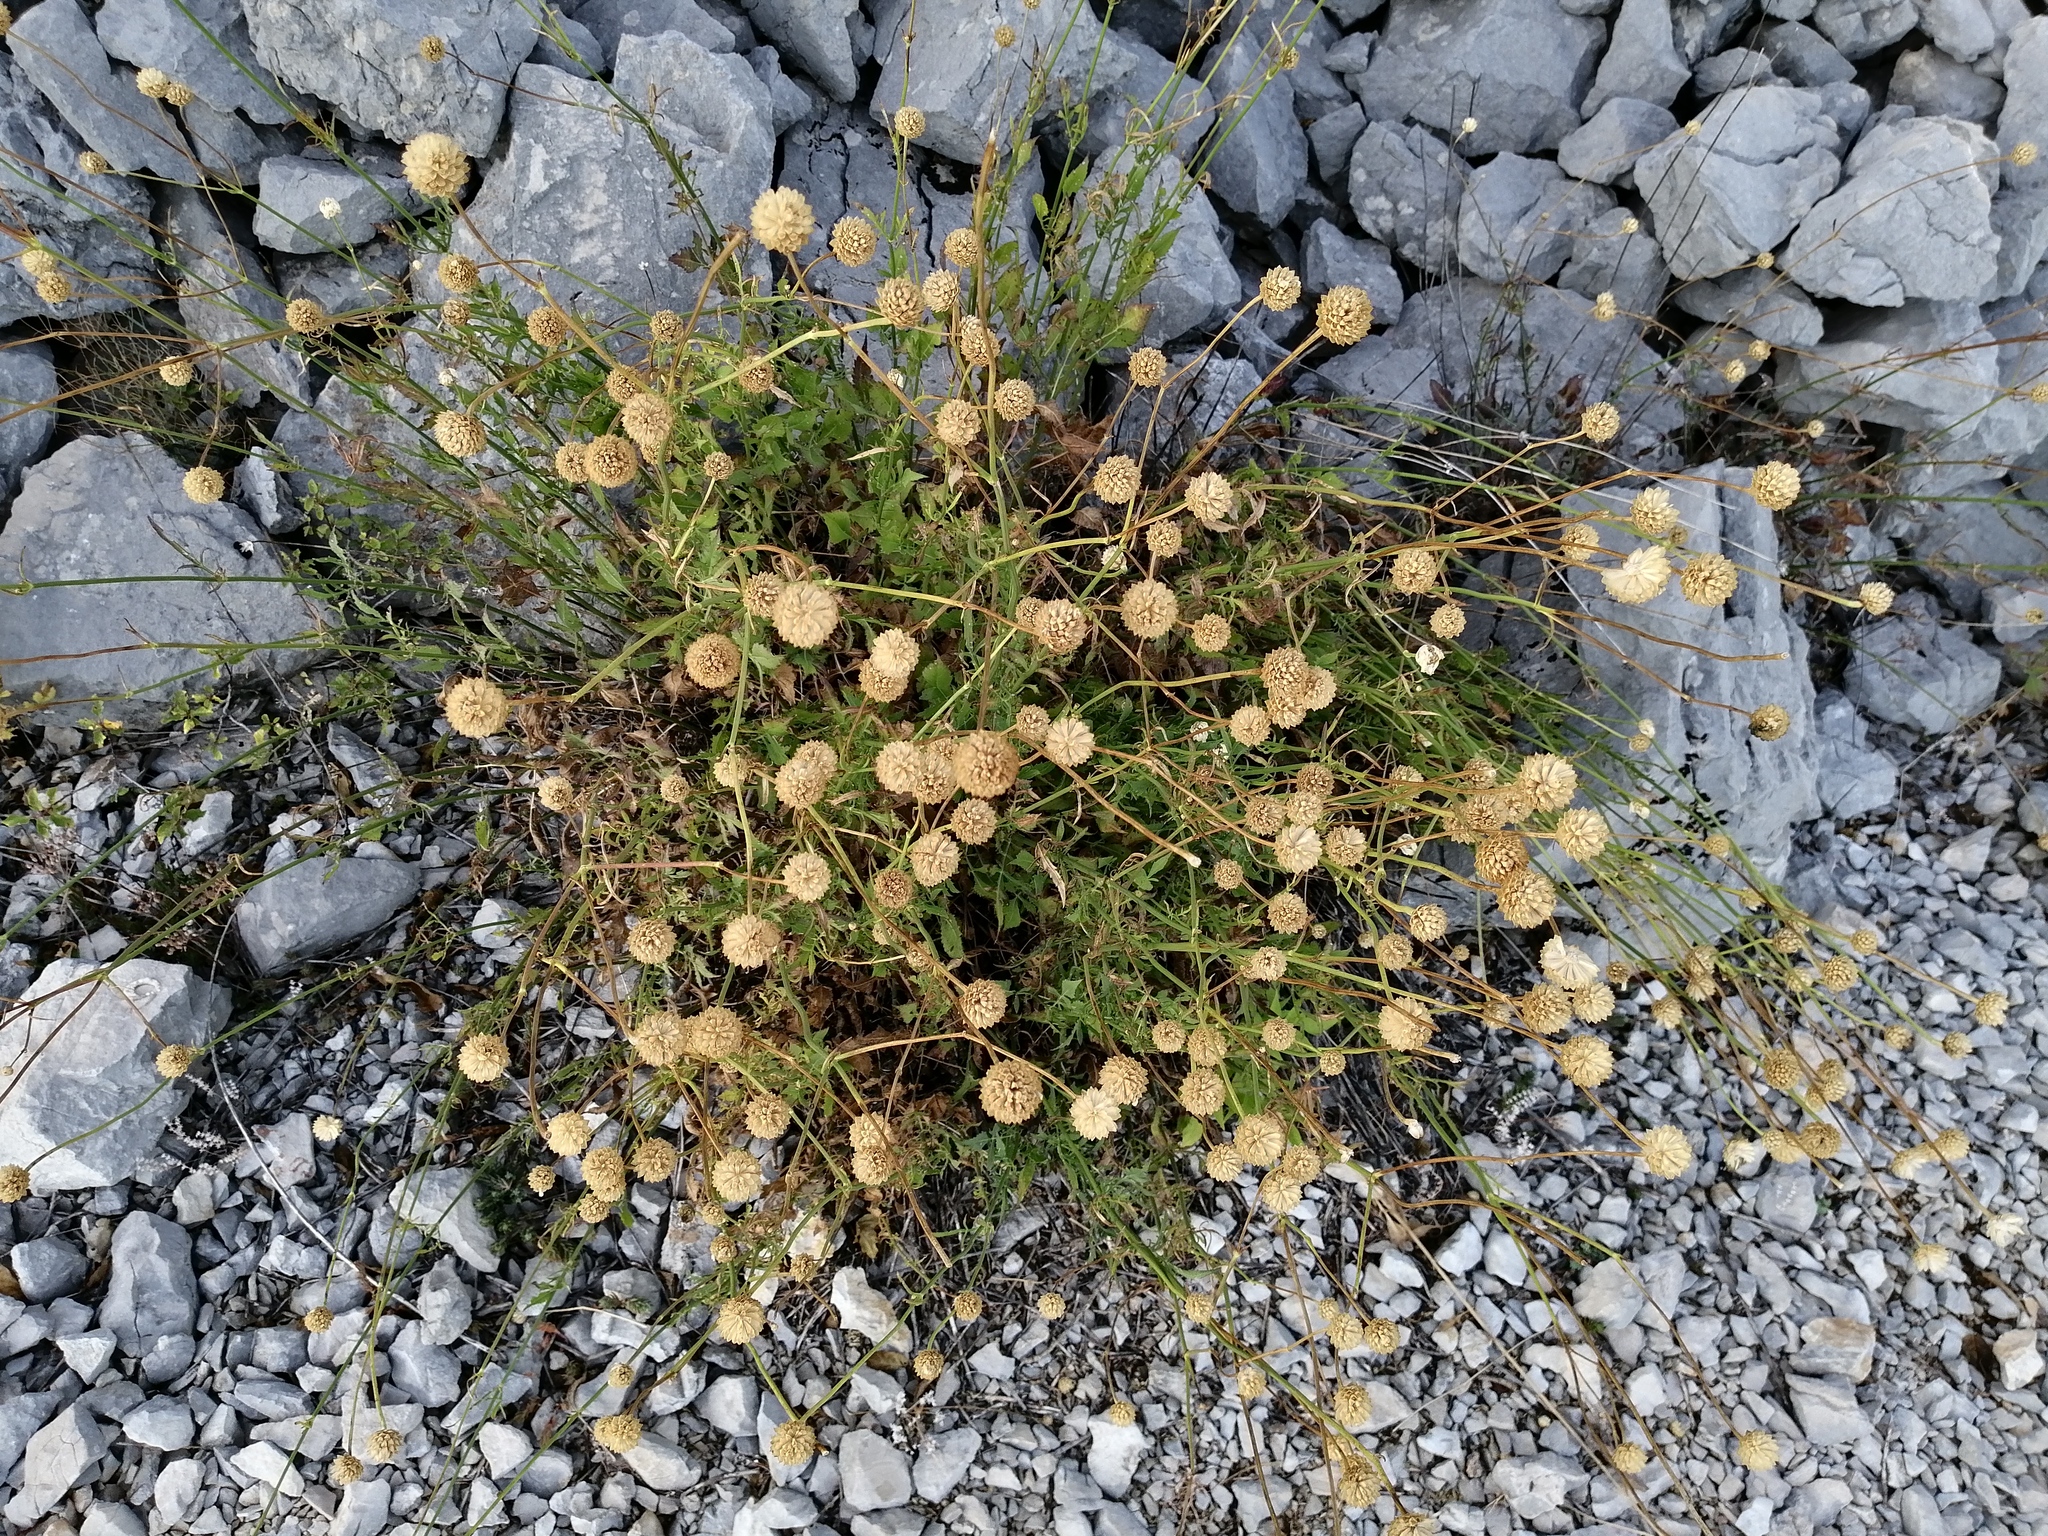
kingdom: Plantae
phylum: Tracheophyta
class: Magnoliopsida
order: Dipsacales
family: Caprifoliaceae
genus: Cephalaria
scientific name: Cephalaria leucantha
